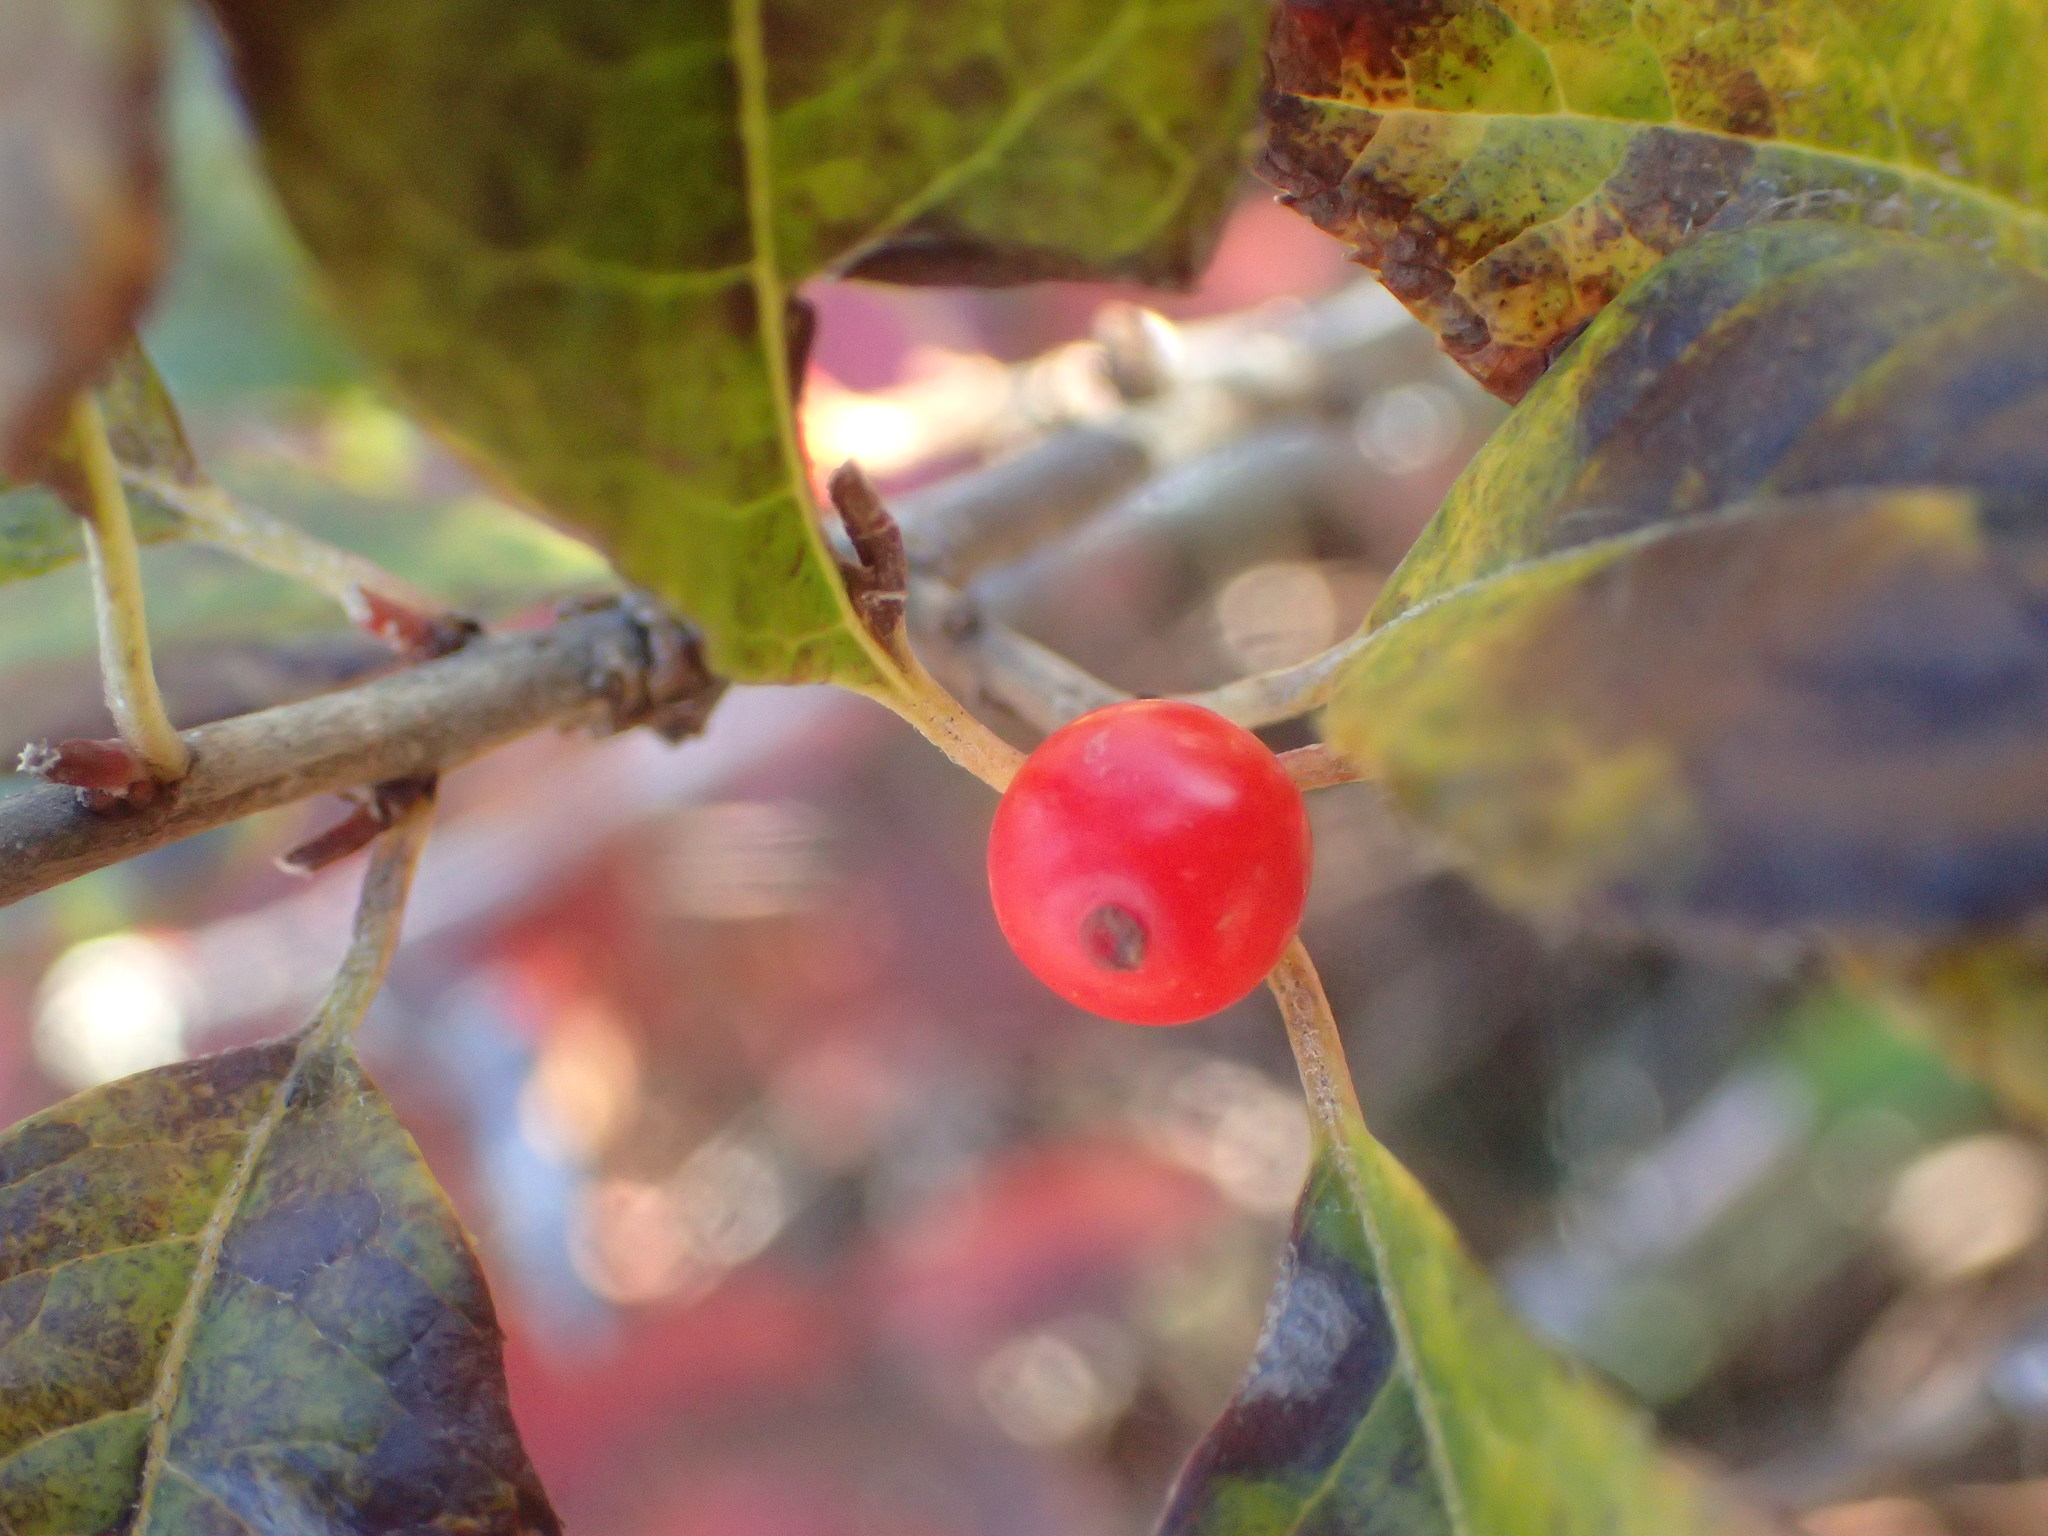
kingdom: Plantae
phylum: Tracheophyta
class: Magnoliopsida
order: Aquifoliales
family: Aquifoliaceae
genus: Ilex
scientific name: Ilex verticillata
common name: Virginia winterberry
